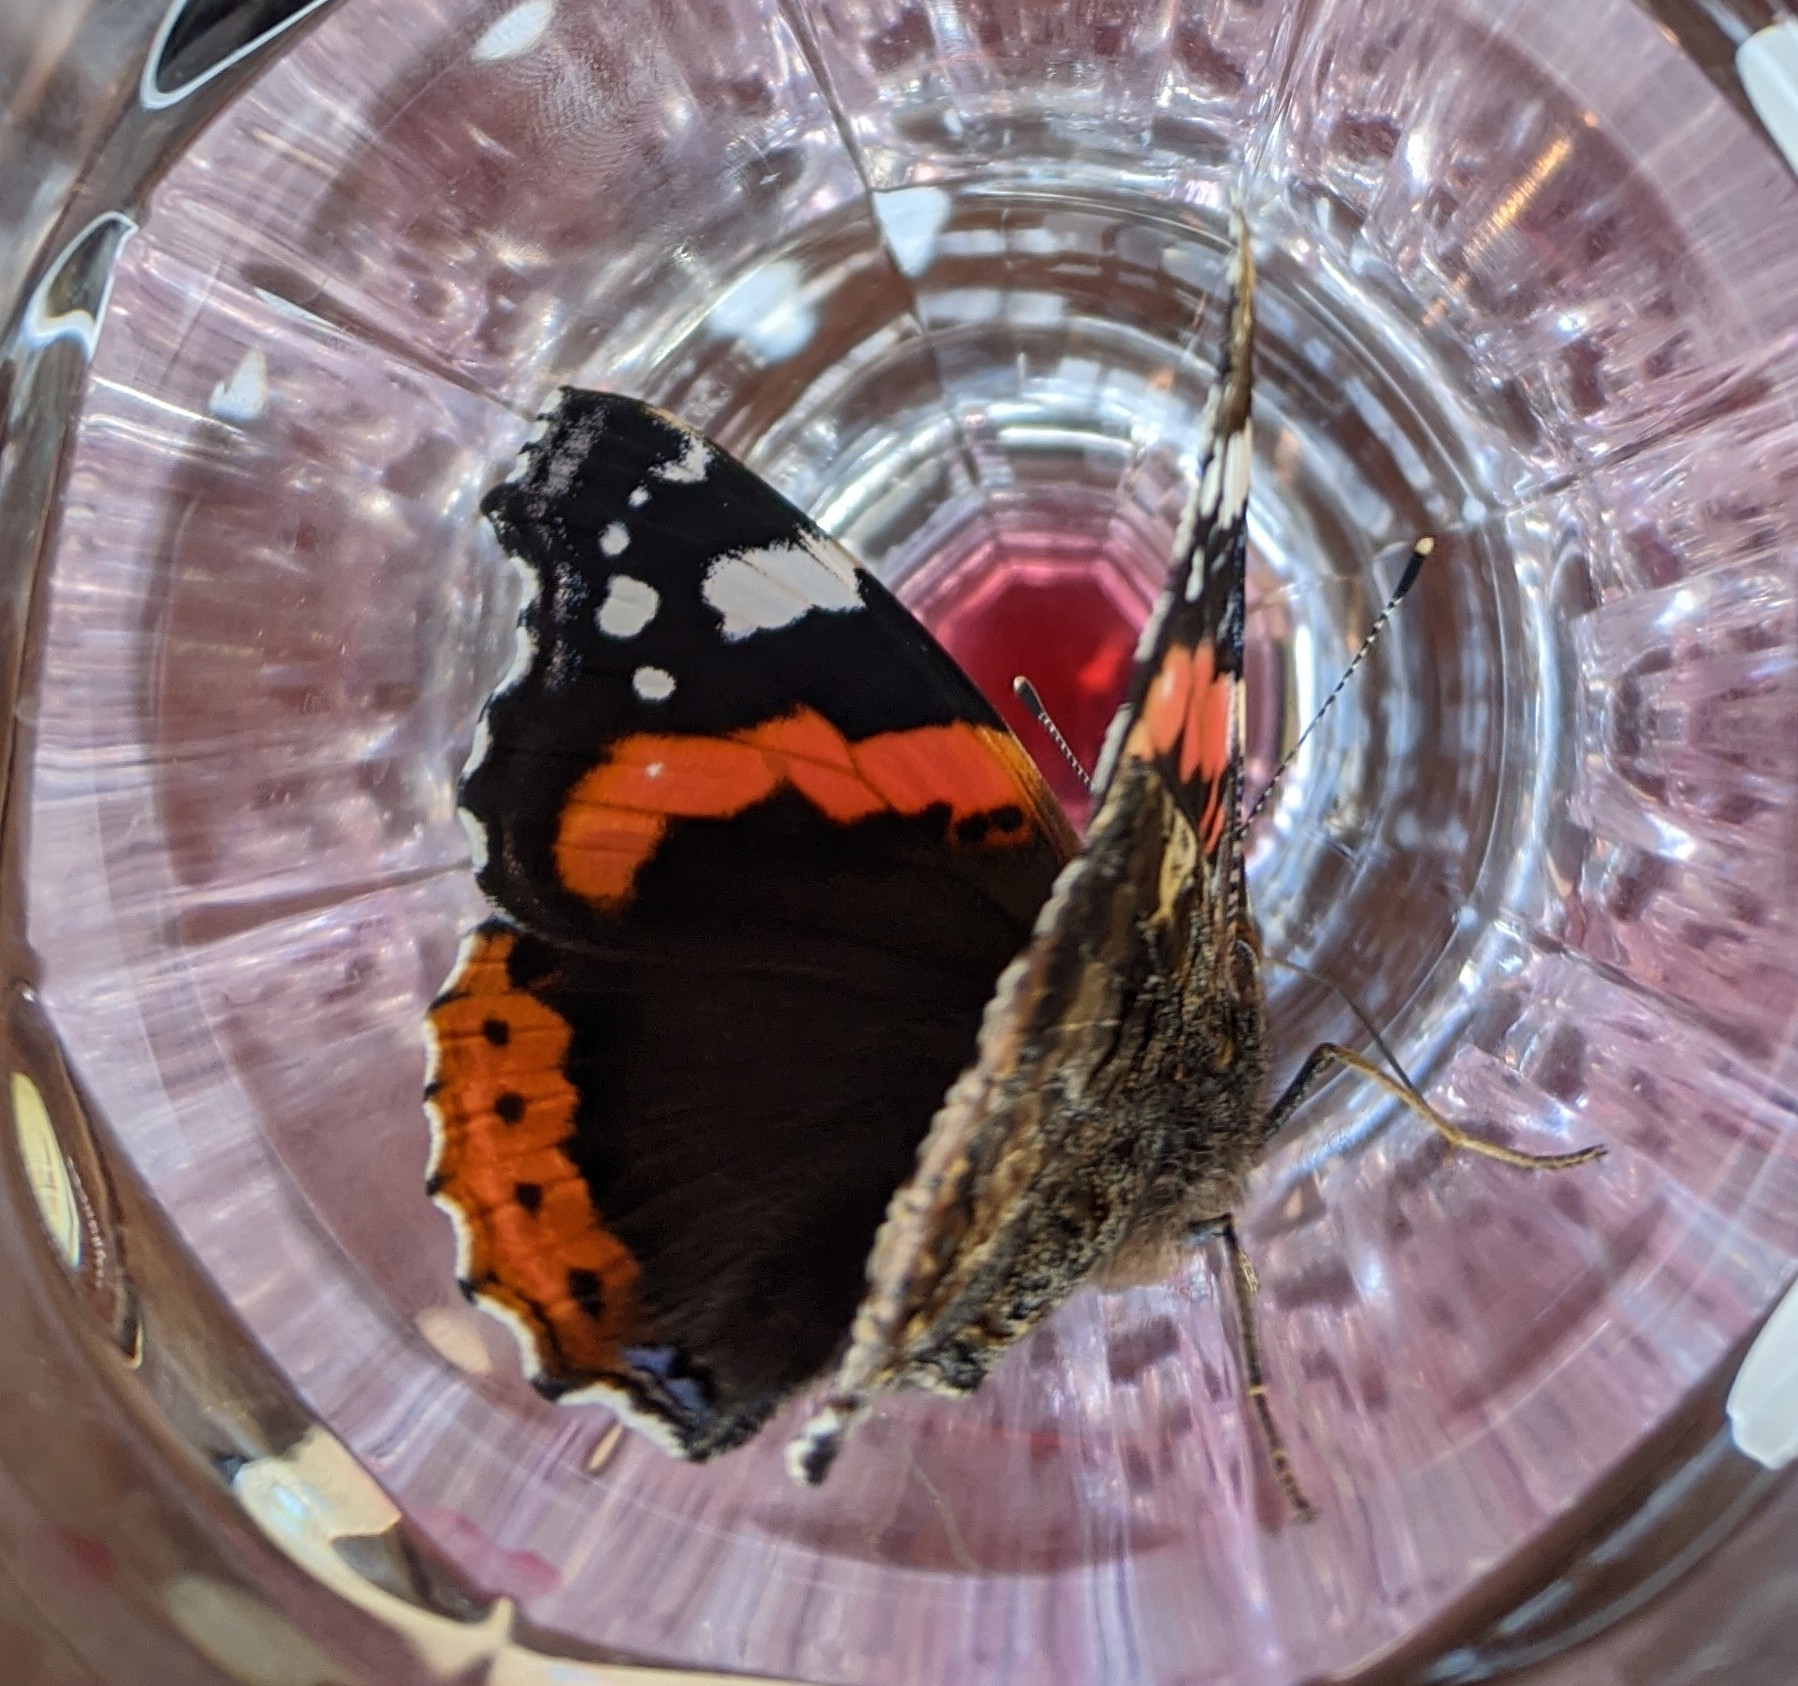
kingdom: Animalia
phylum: Arthropoda
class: Insecta
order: Lepidoptera
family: Nymphalidae
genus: Vanessa
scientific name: Vanessa atalanta
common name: Red admiral
